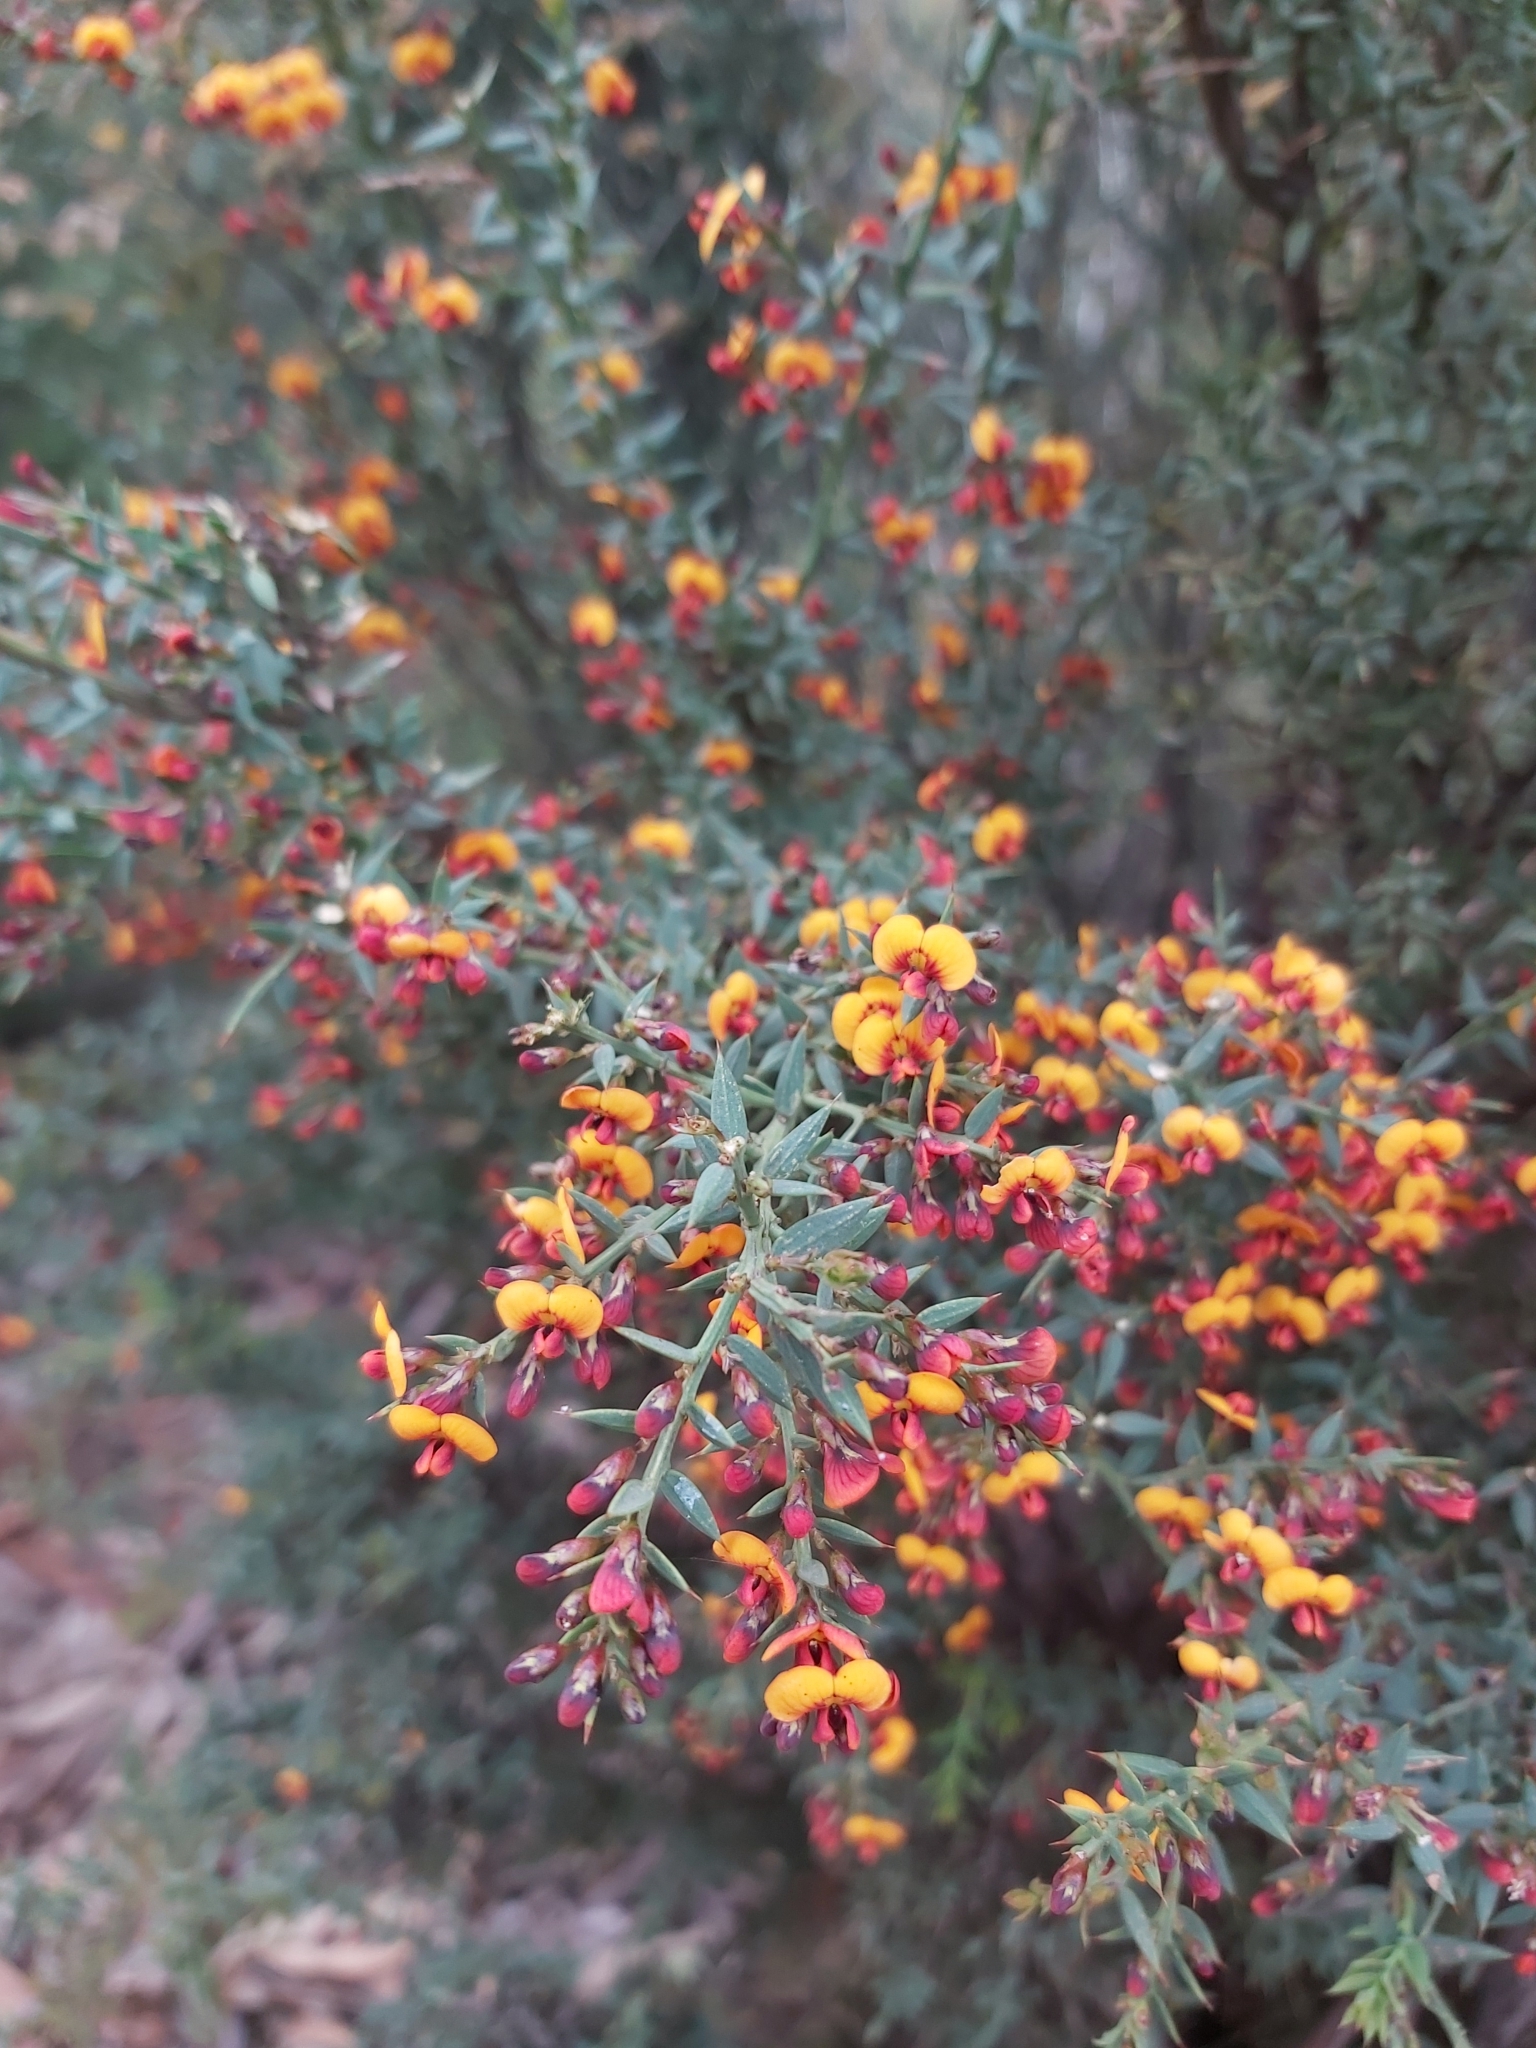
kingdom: Plantae
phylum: Tracheophyta
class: Magnoliopsida
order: Fabales
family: Fabaceae
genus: Daviesia
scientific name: Daviesia ulicifolia
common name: Gorse bitter-pea
